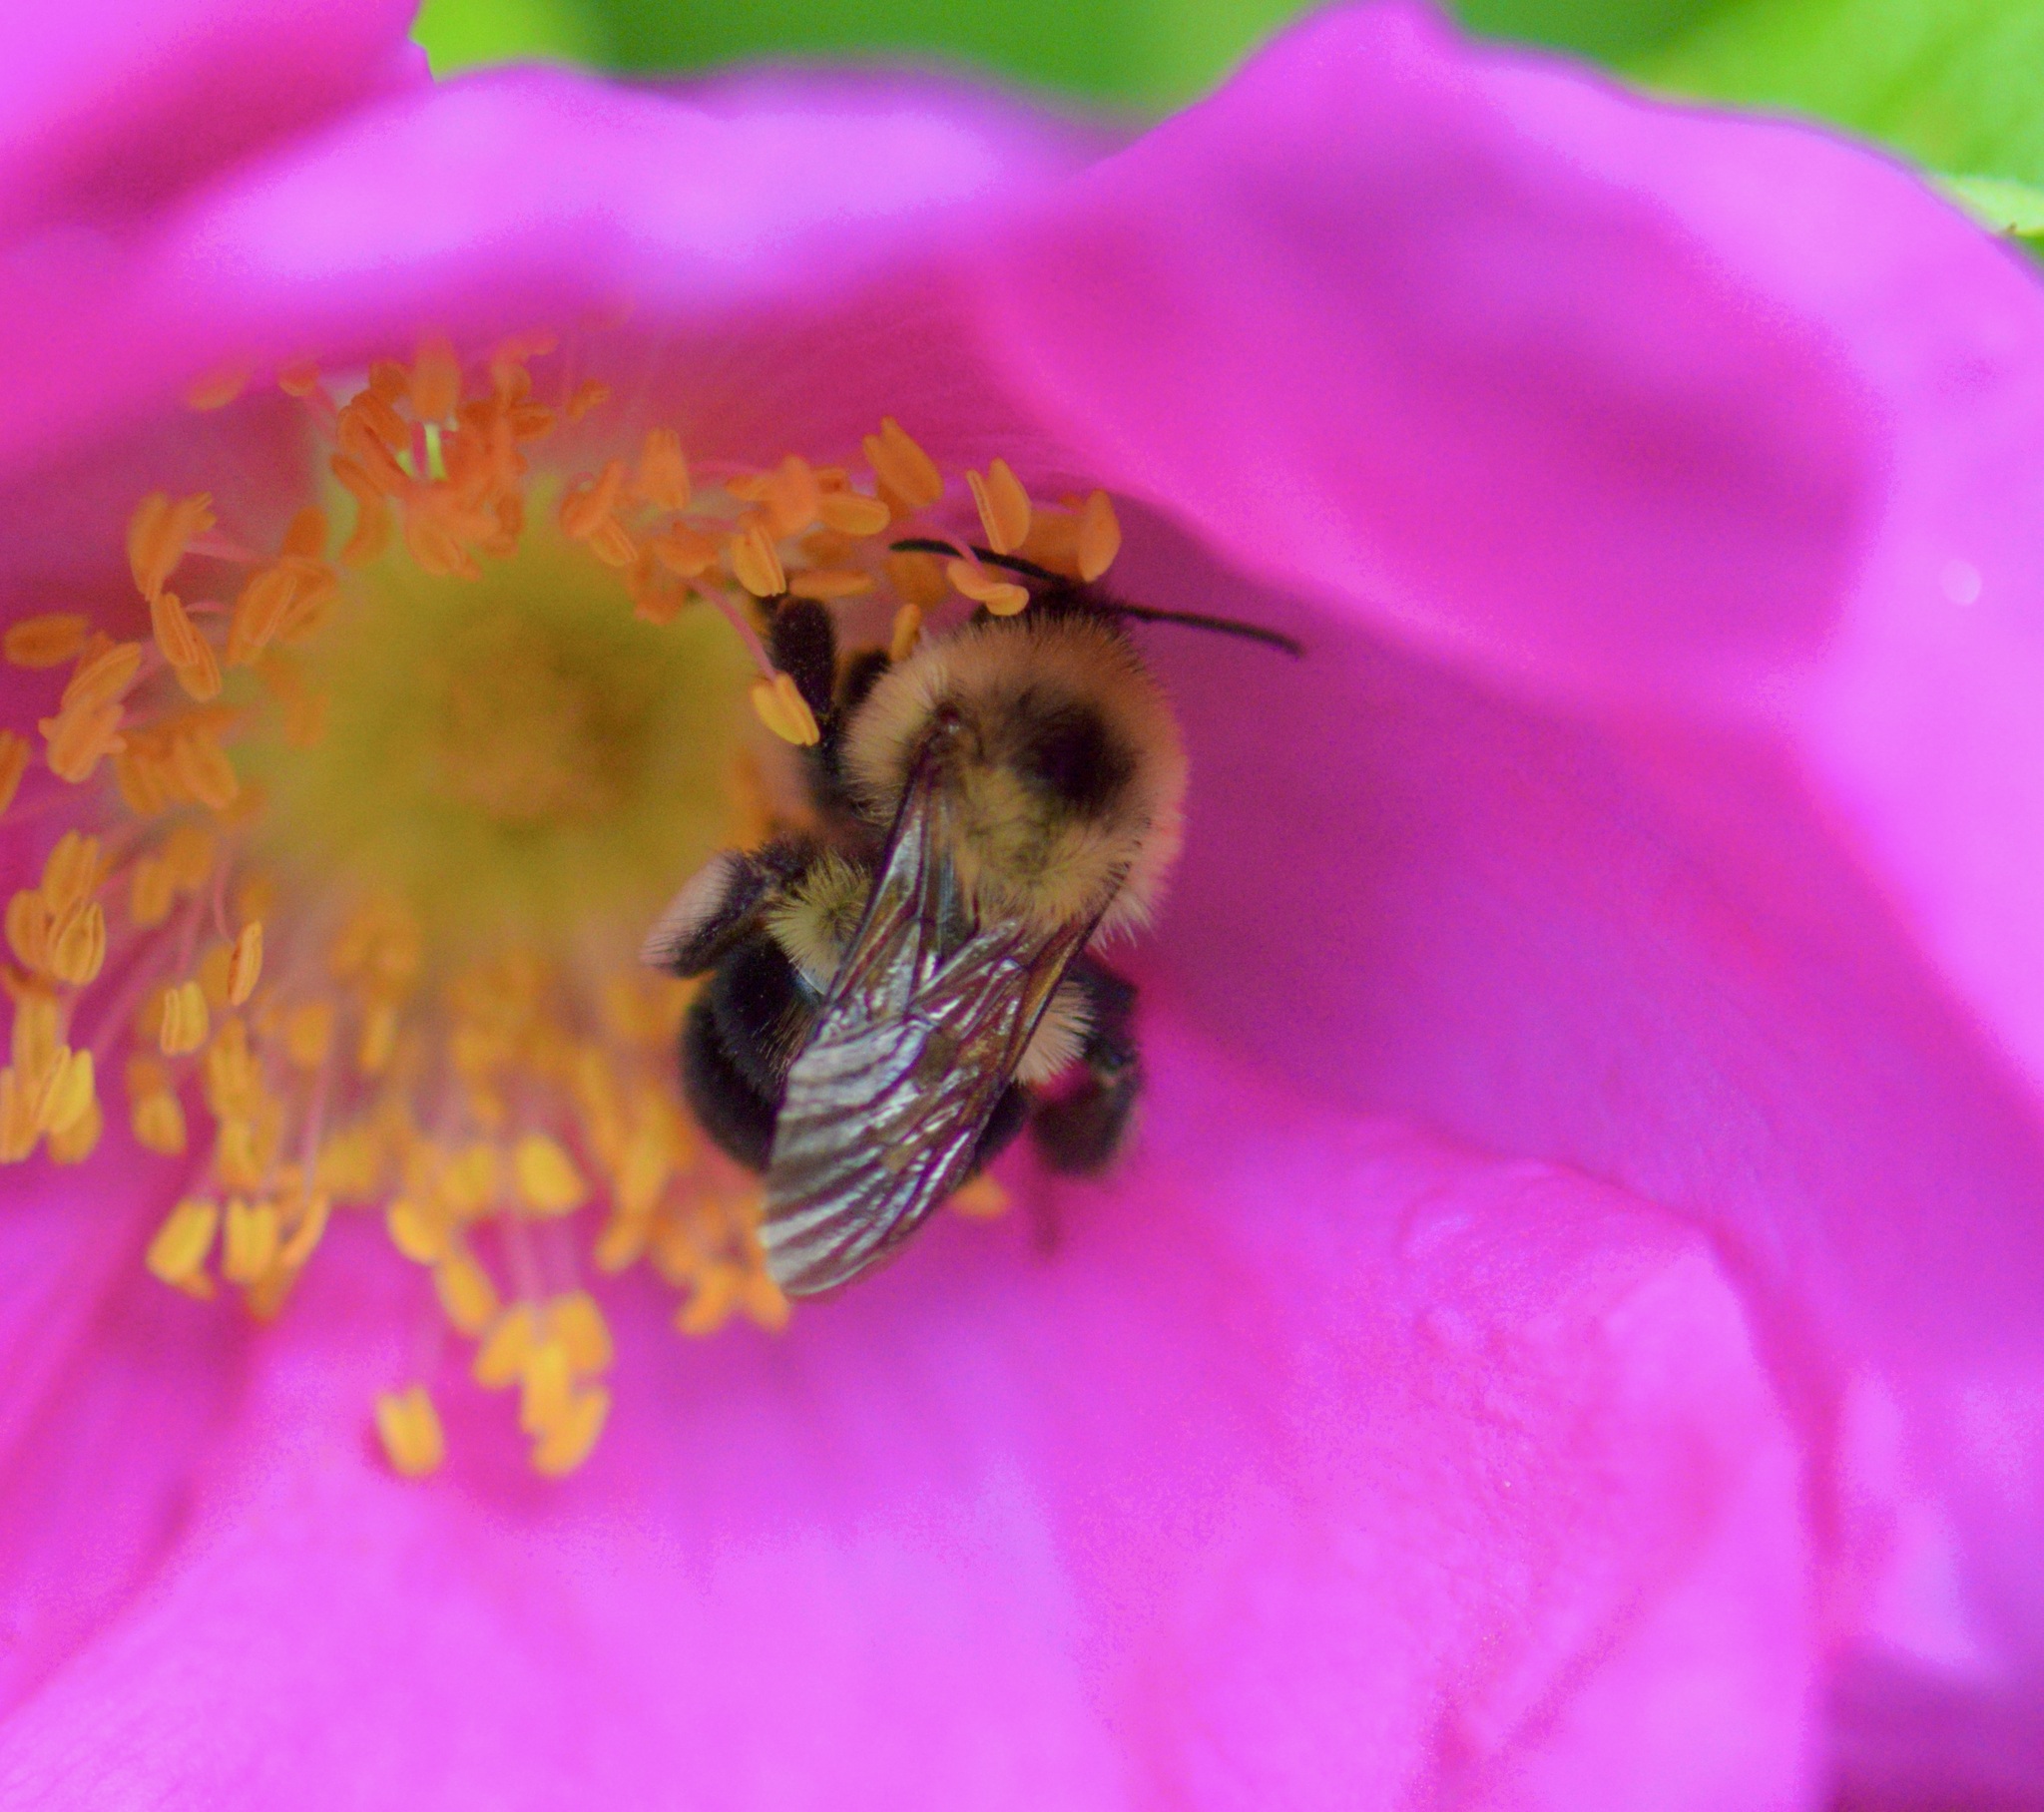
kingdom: Animalia
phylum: Arthropoda
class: Insecta
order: Hymenoptera
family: Apidae
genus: Bombus
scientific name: Bombus bimaculatus
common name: Two-spotted bumble bee
